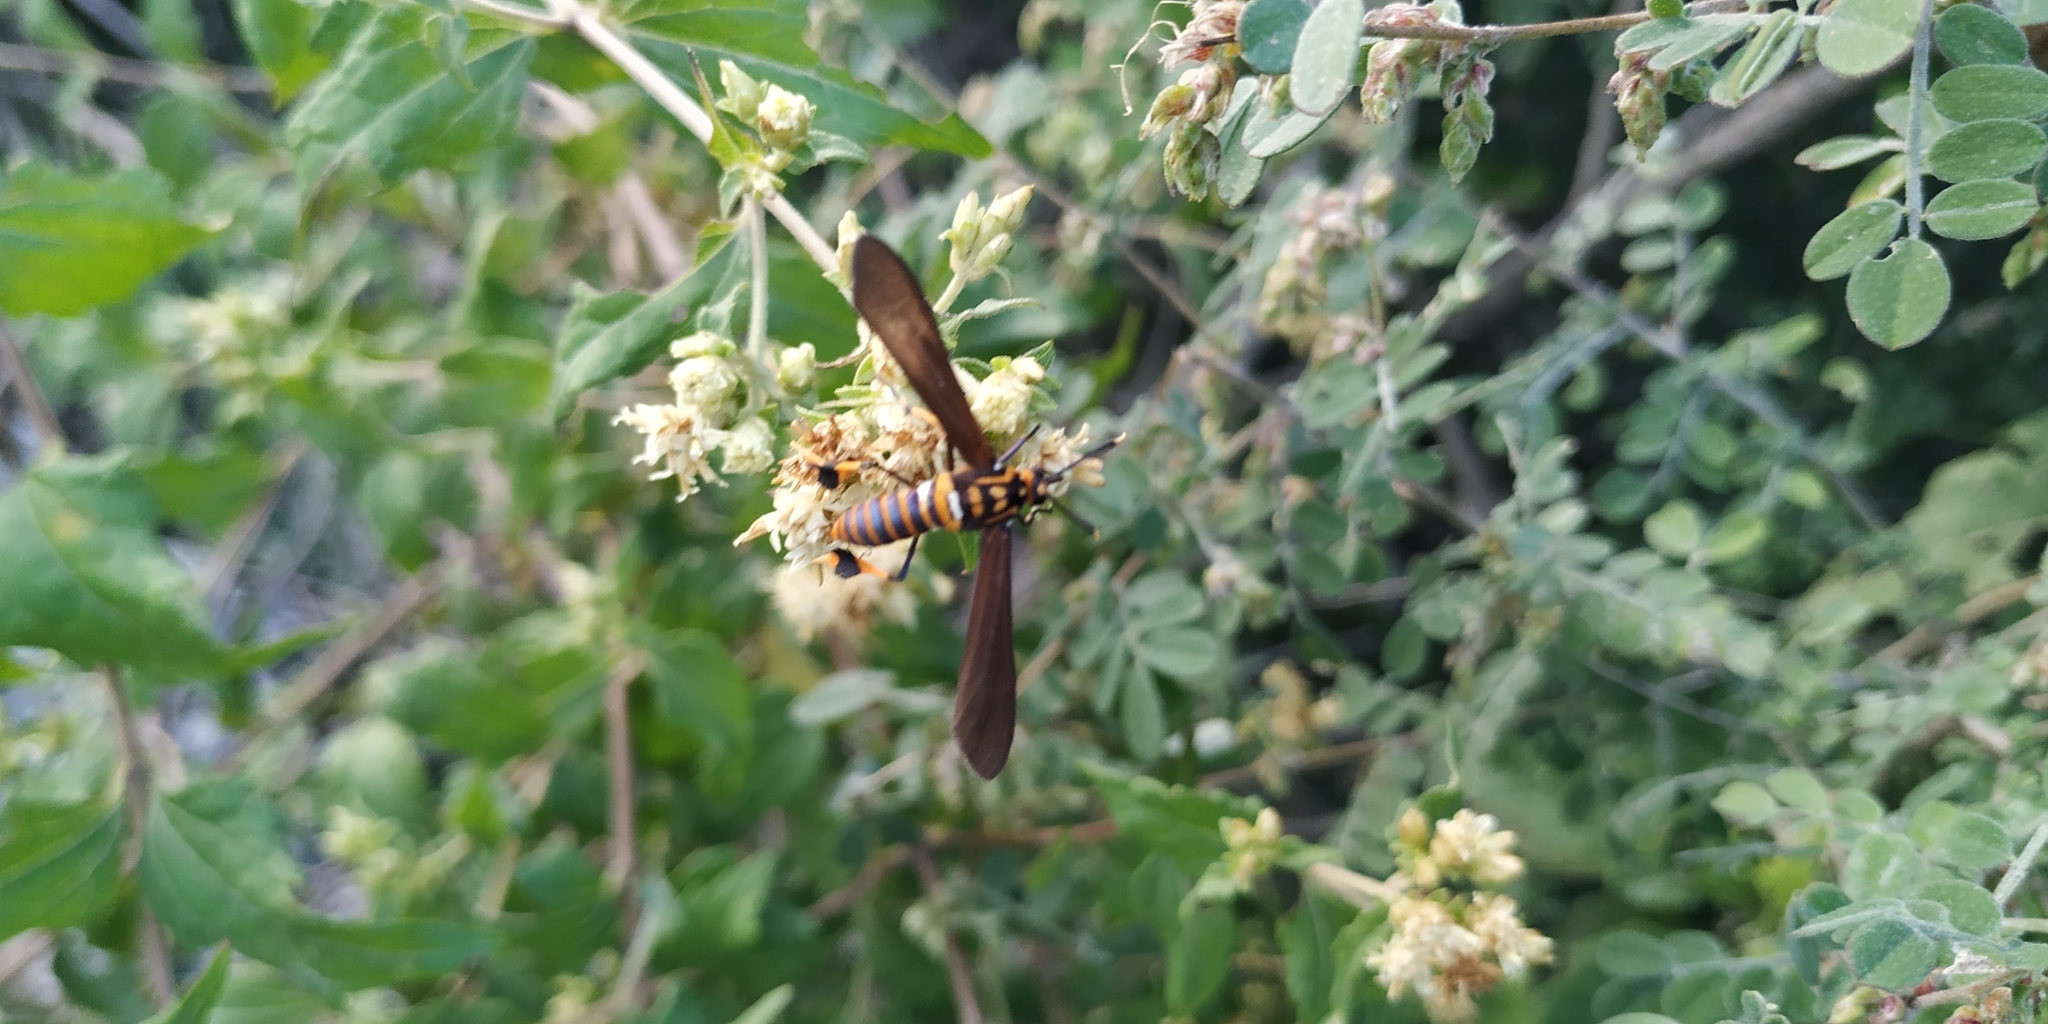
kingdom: Animalia
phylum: Arthropoda
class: Insecta
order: Lepidoptera
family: Erebidae
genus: Horama
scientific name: Horama panthalon
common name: Texas wasp moth
